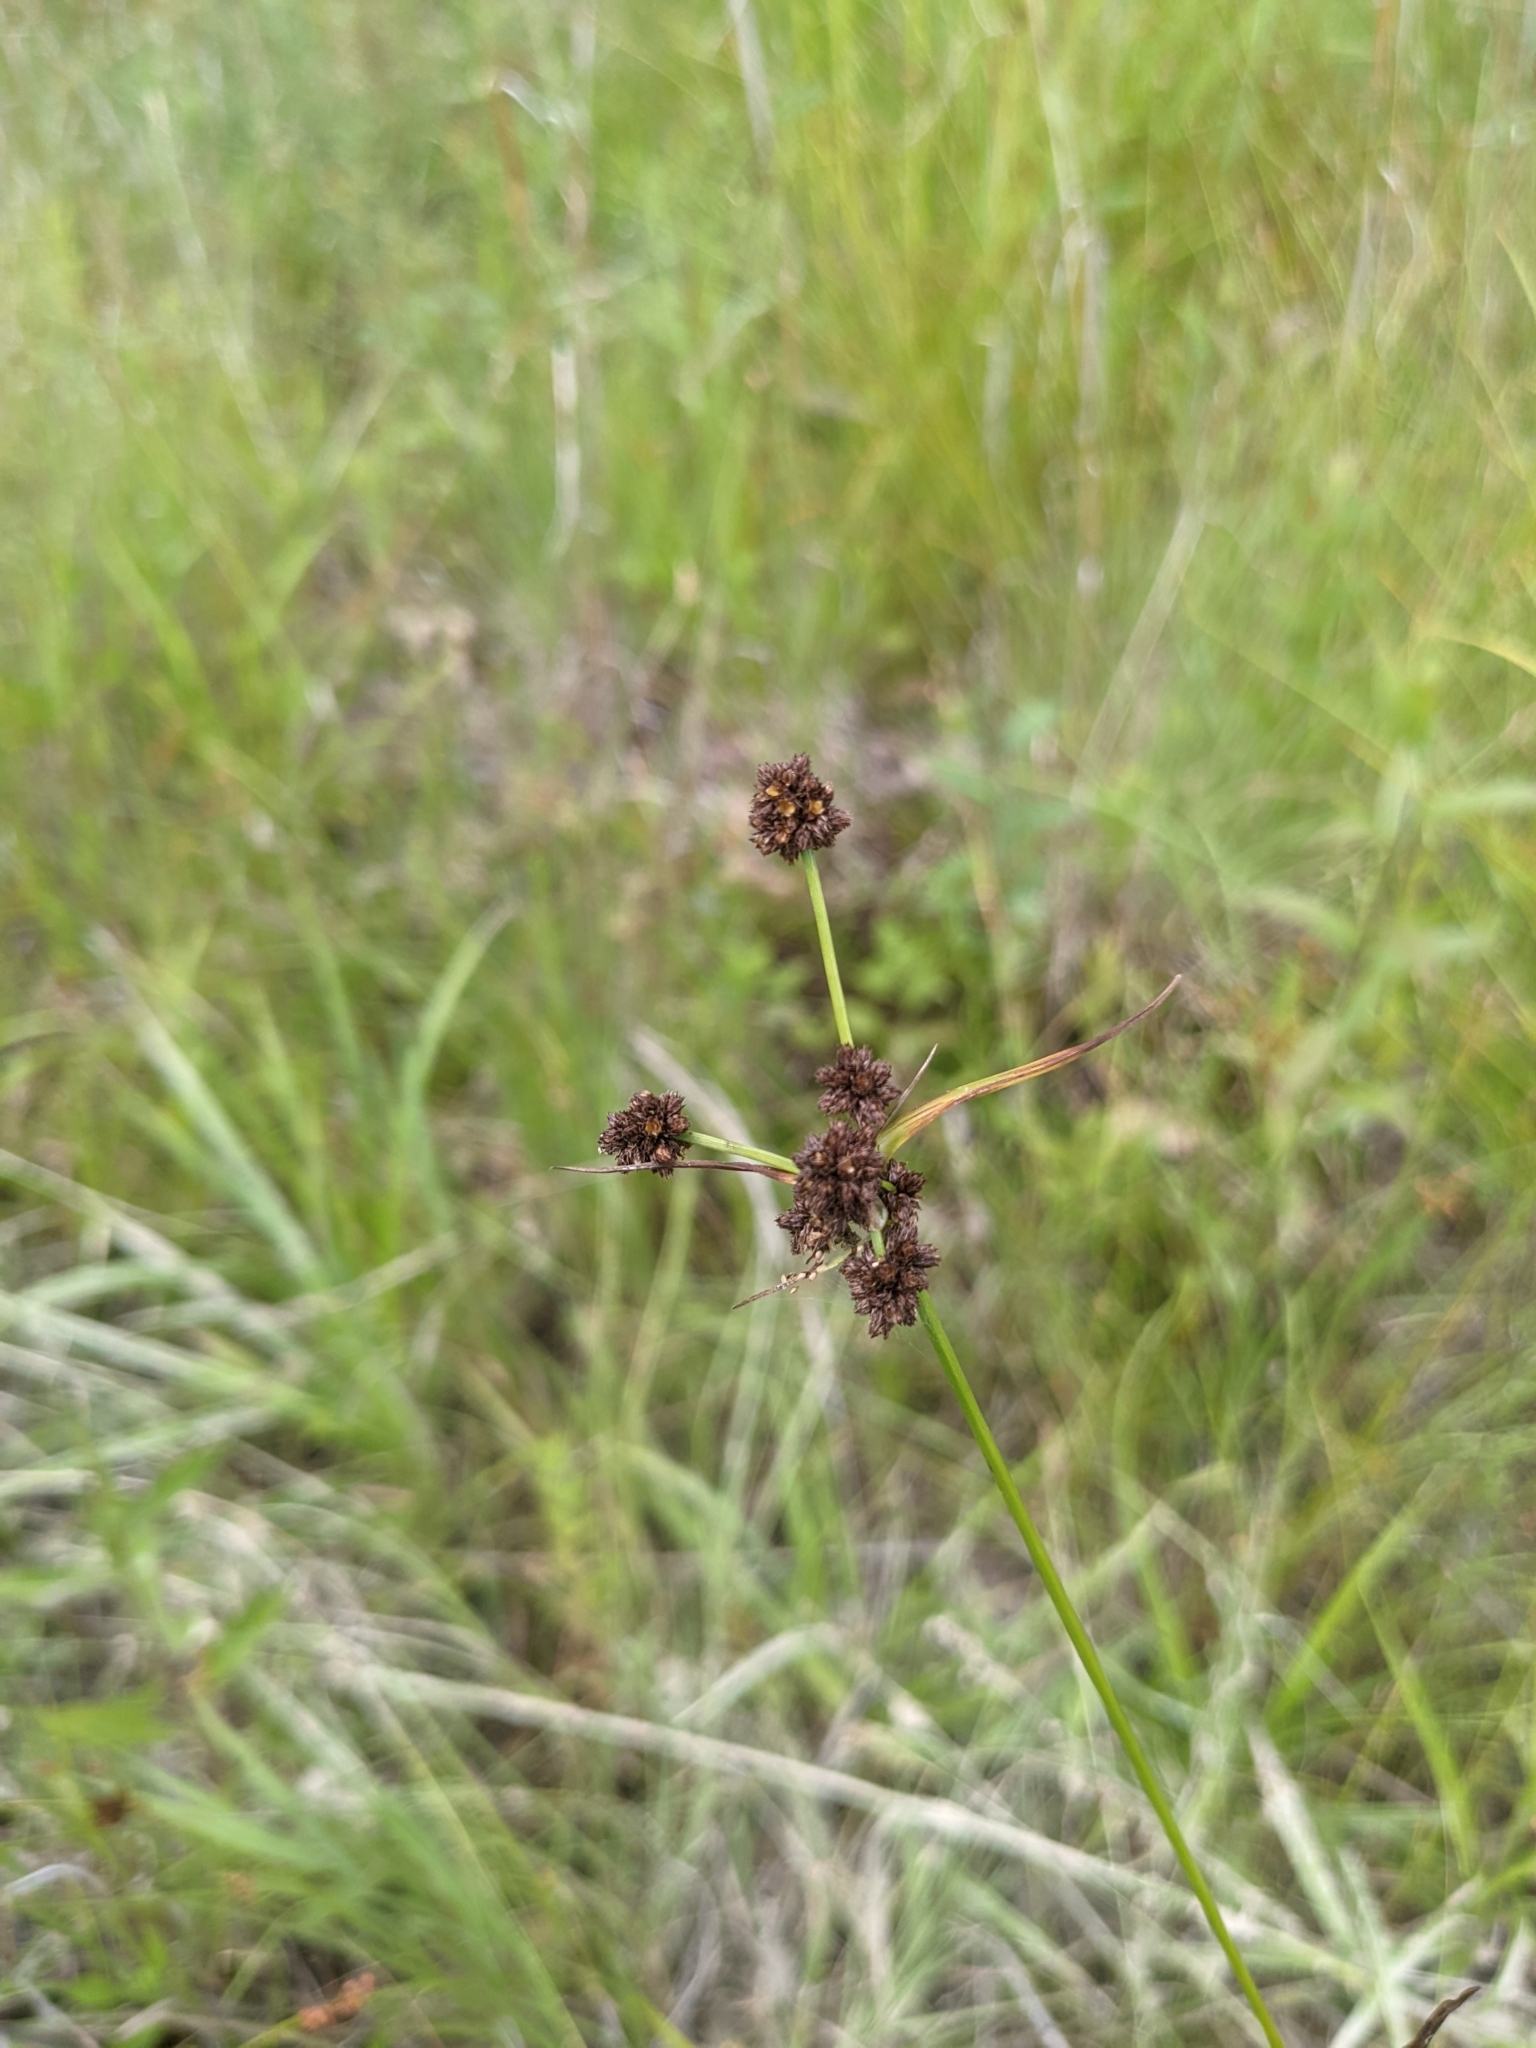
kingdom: Plantae
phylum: Tracheophyta
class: Liliopsida
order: Poales
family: Cyperaceae
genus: Scirpus
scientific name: Scirpus atrovirens
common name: Black bulrush
